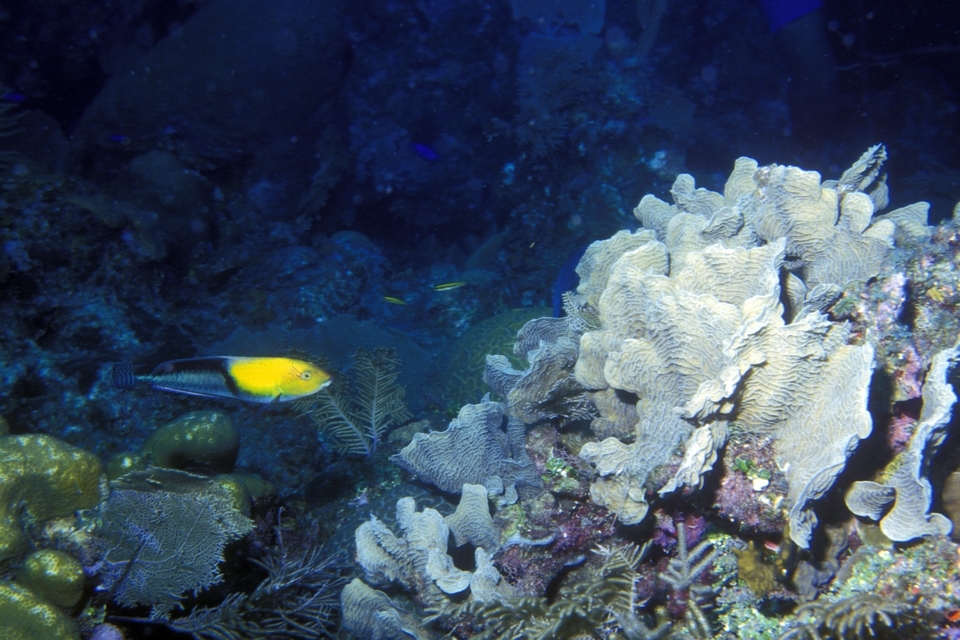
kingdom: Animalia
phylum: Cnidaria
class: Anthozoa
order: Scleractinia
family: Agariciidae
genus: Agaricia
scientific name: Agaricia tenuifolia
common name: Thin leaf lettuce coral
